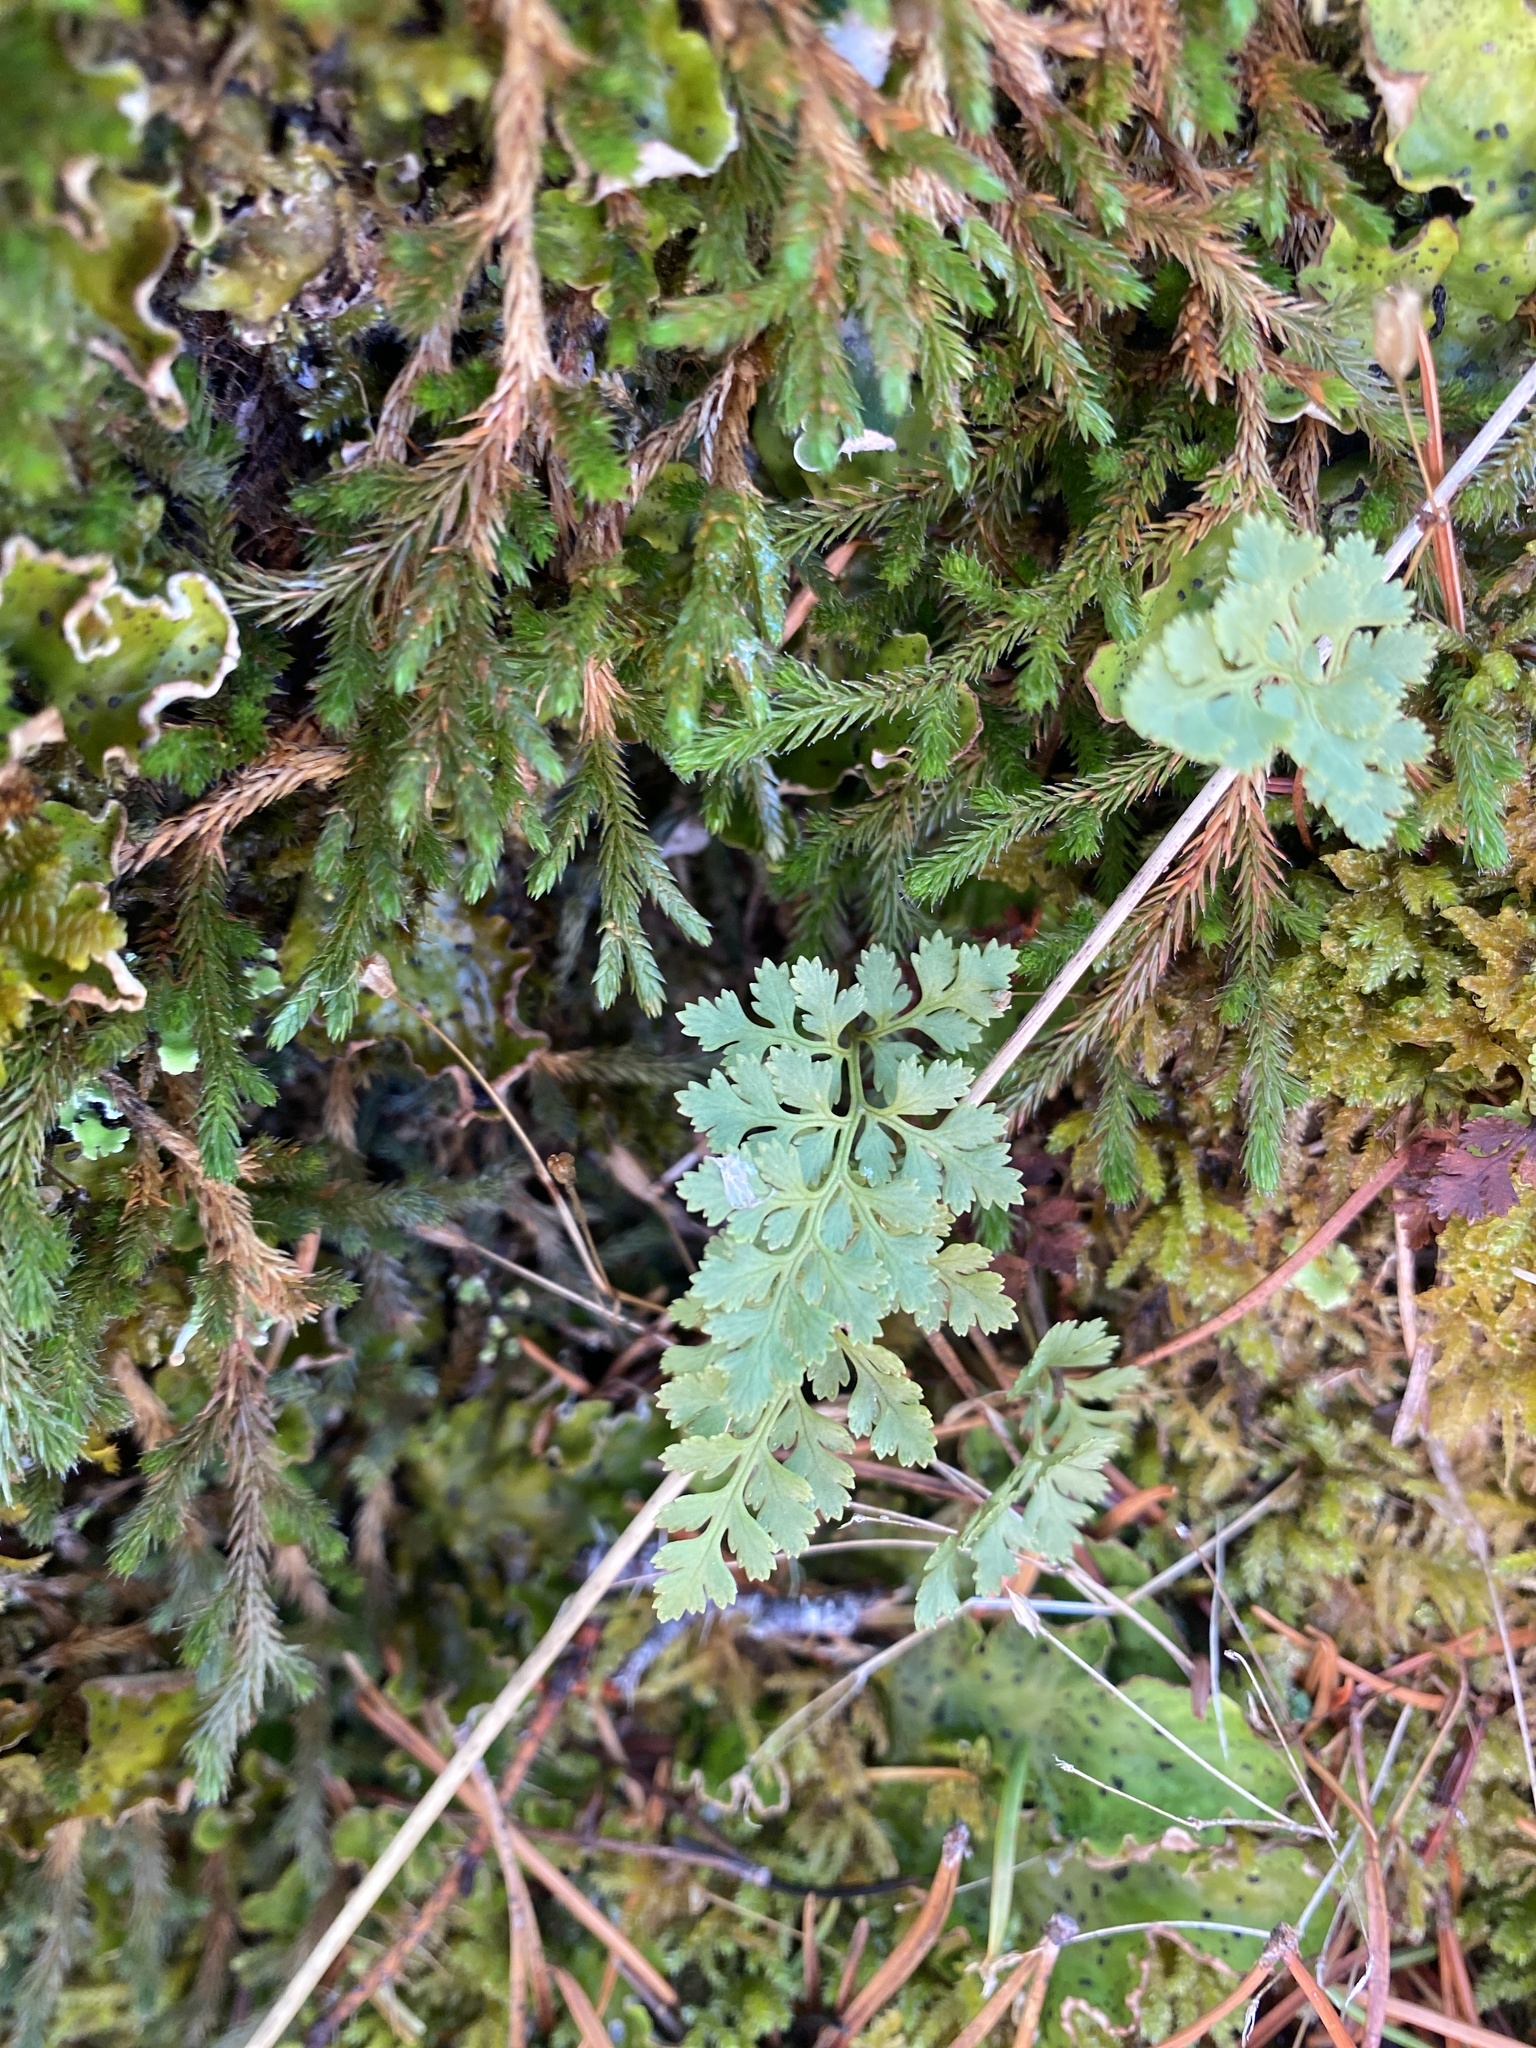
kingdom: Plantae
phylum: Tracheophyta
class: Polypodiopsida
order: Polypodiales
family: Pteridaceae
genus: Cryptogramma
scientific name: Cryptogramma acrostichoides
